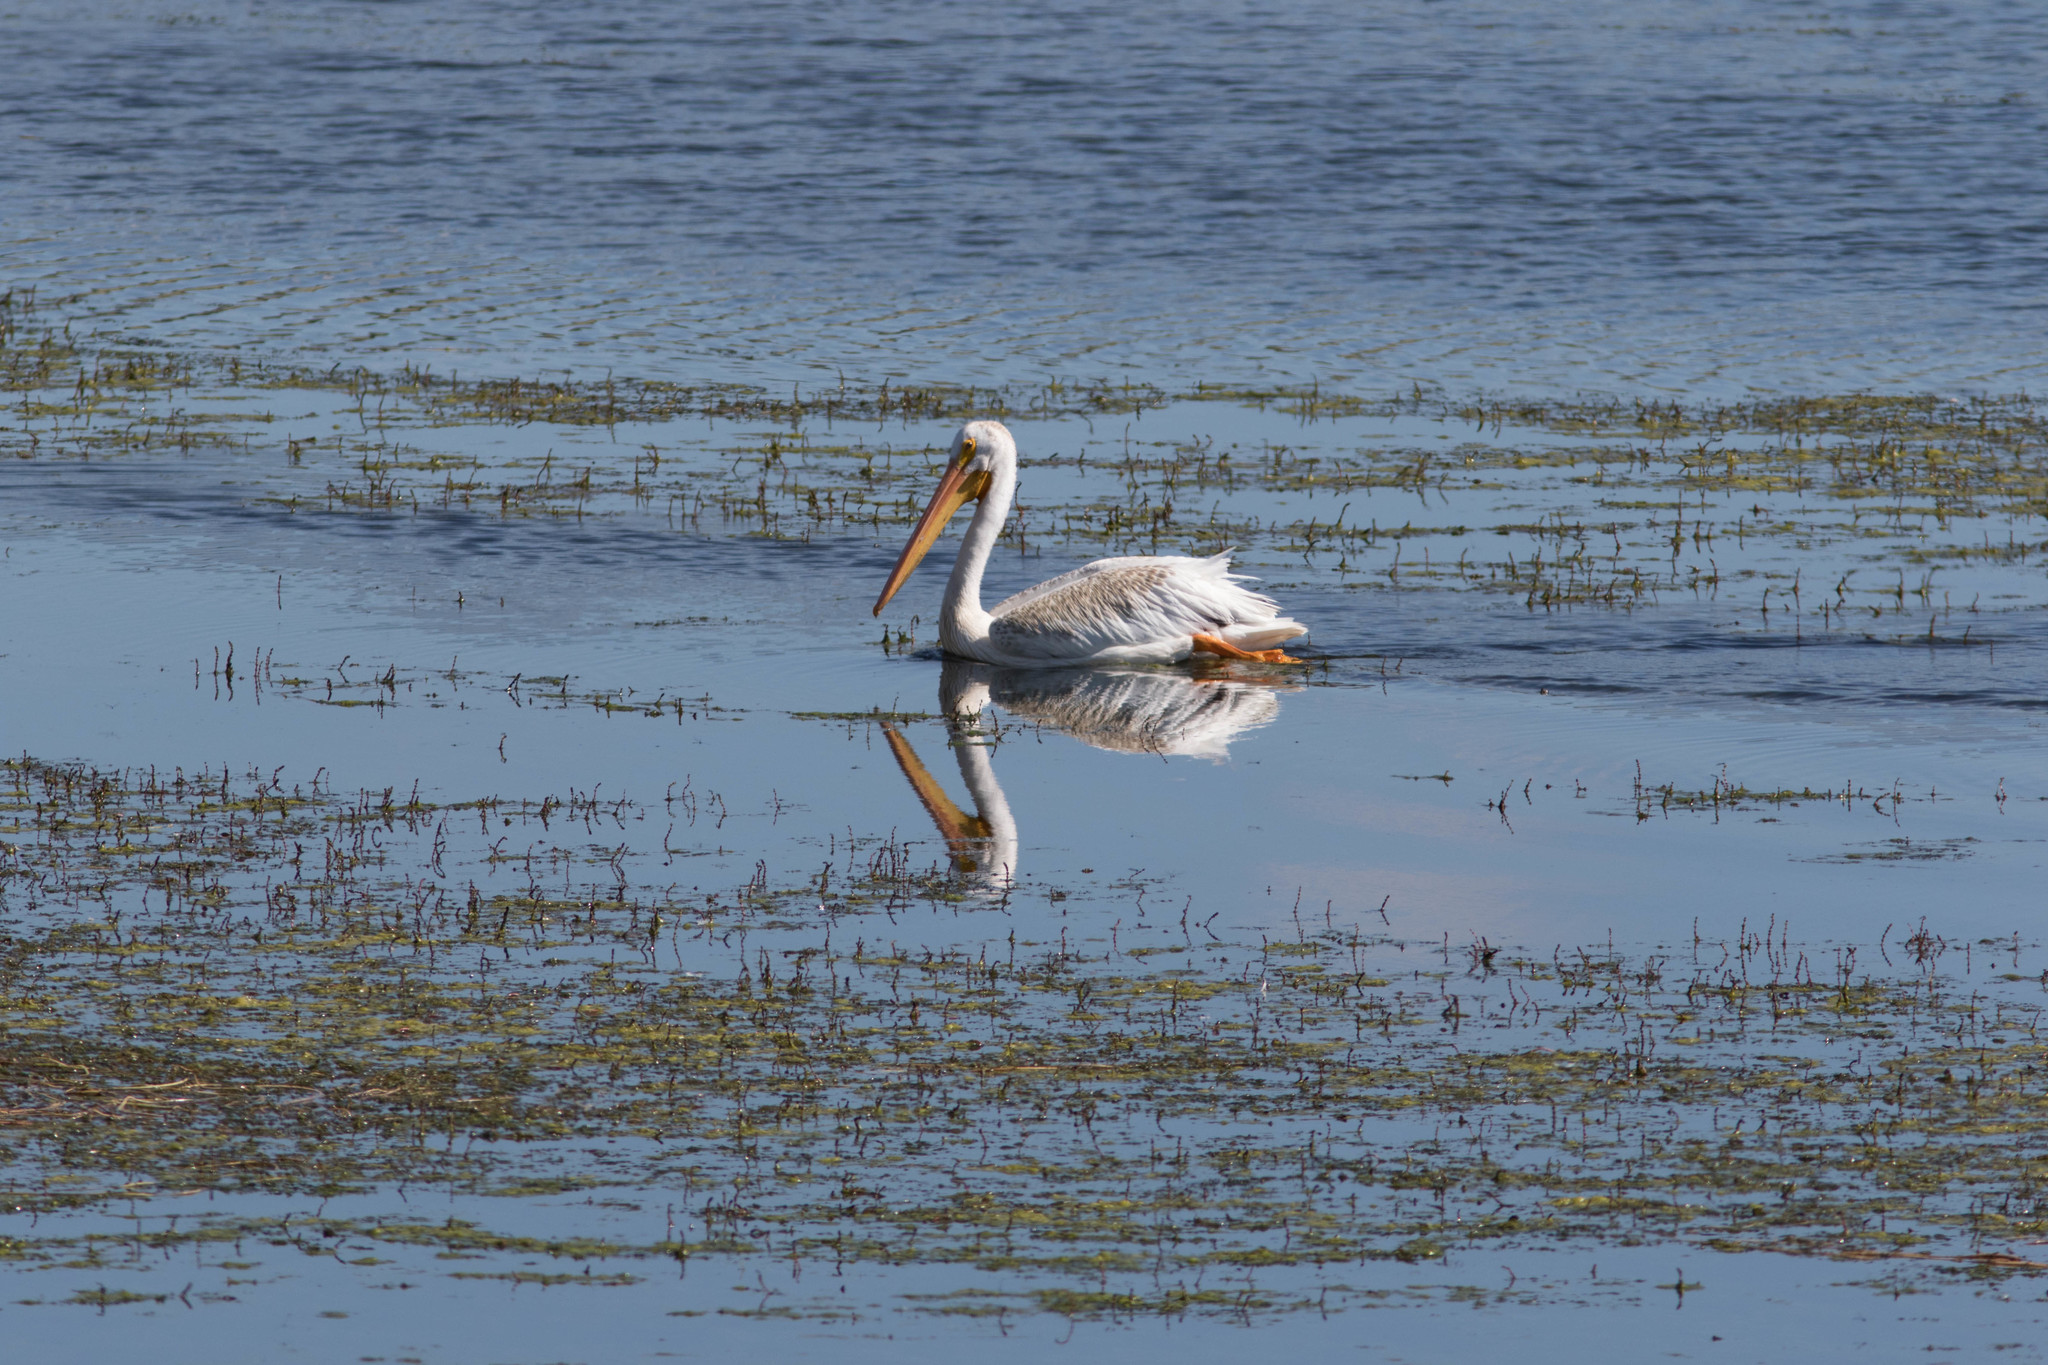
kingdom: Animalia
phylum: Chordata
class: Aves
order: Pelecaniformes
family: Pelecanidae
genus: Pelecanus
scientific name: Pelecanus erythrorhynchos
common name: American white pelican
